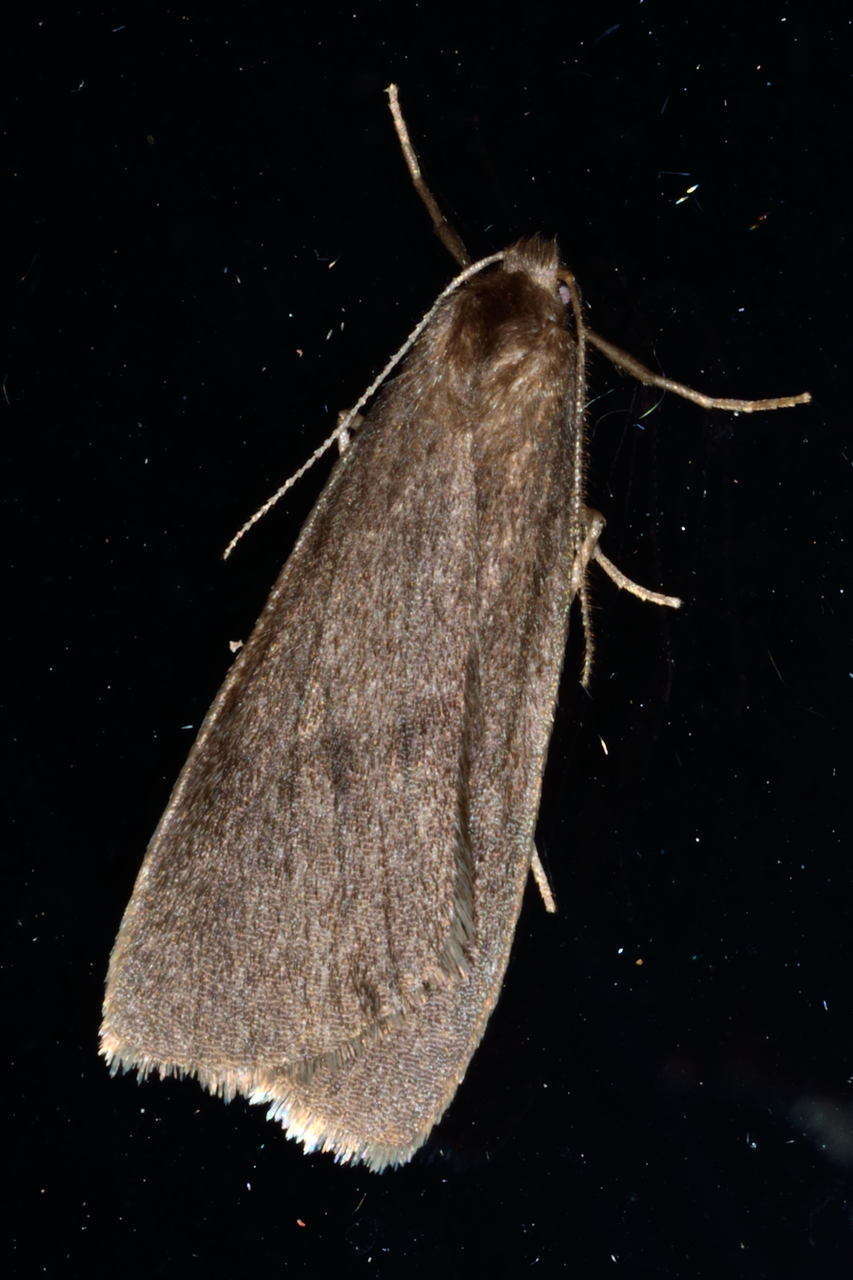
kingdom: Animalia
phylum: Arthropoda
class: Insecta
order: Lepidoptera
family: Erebidae
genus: Threnosia
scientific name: Threnosia myochroa
